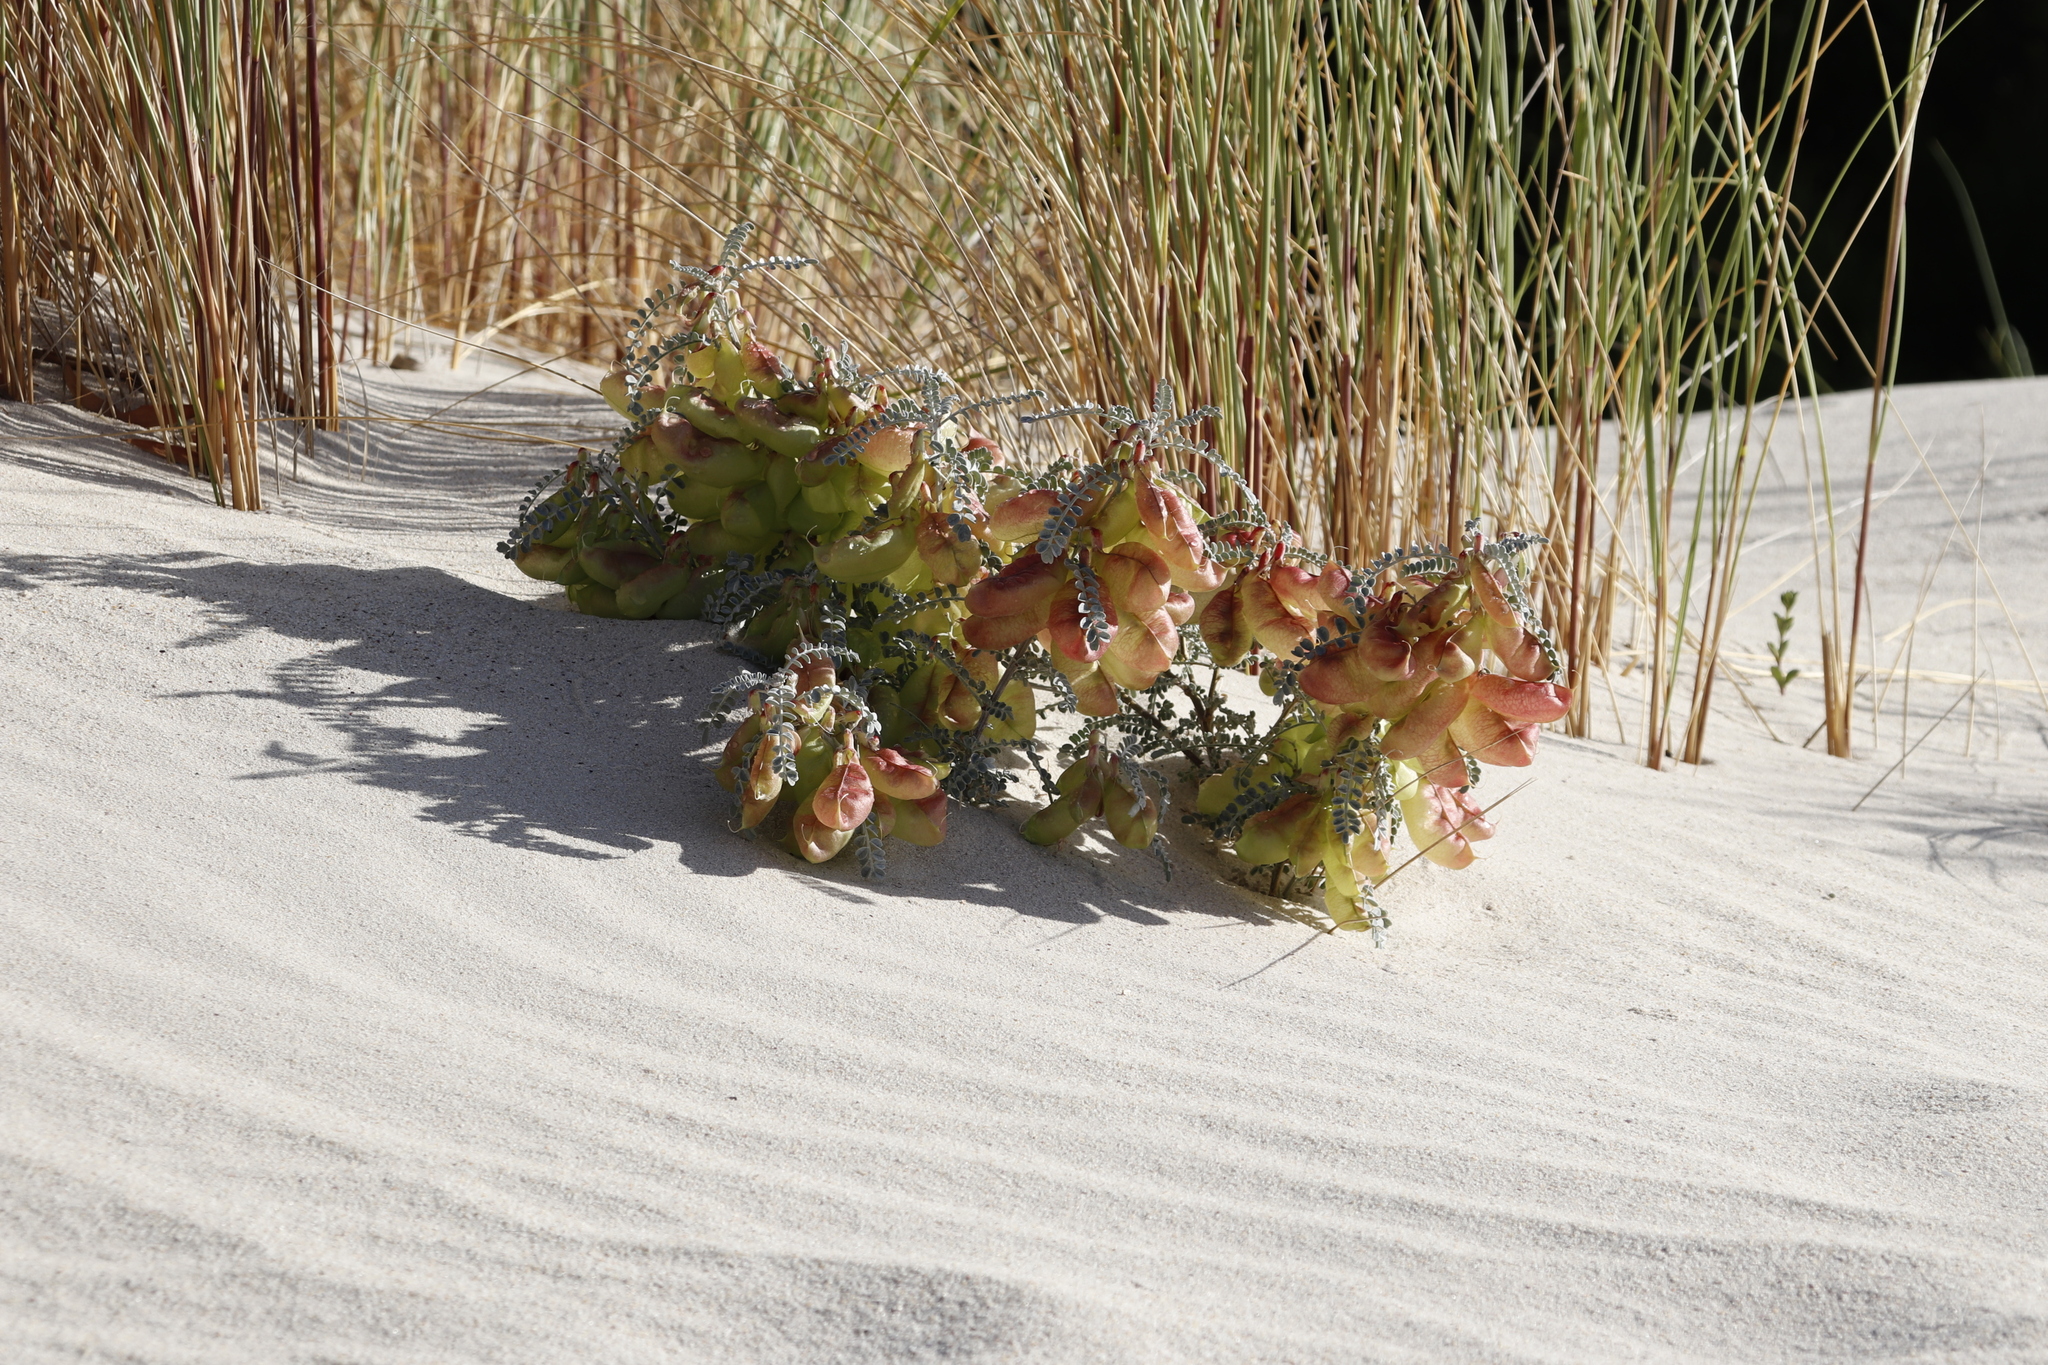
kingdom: Plantae
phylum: Tracheophyta
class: Magnoliopsida
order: Fabales
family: Fabaceae
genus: Lessertia
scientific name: Lessertia frutescens
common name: Balloon-pea
